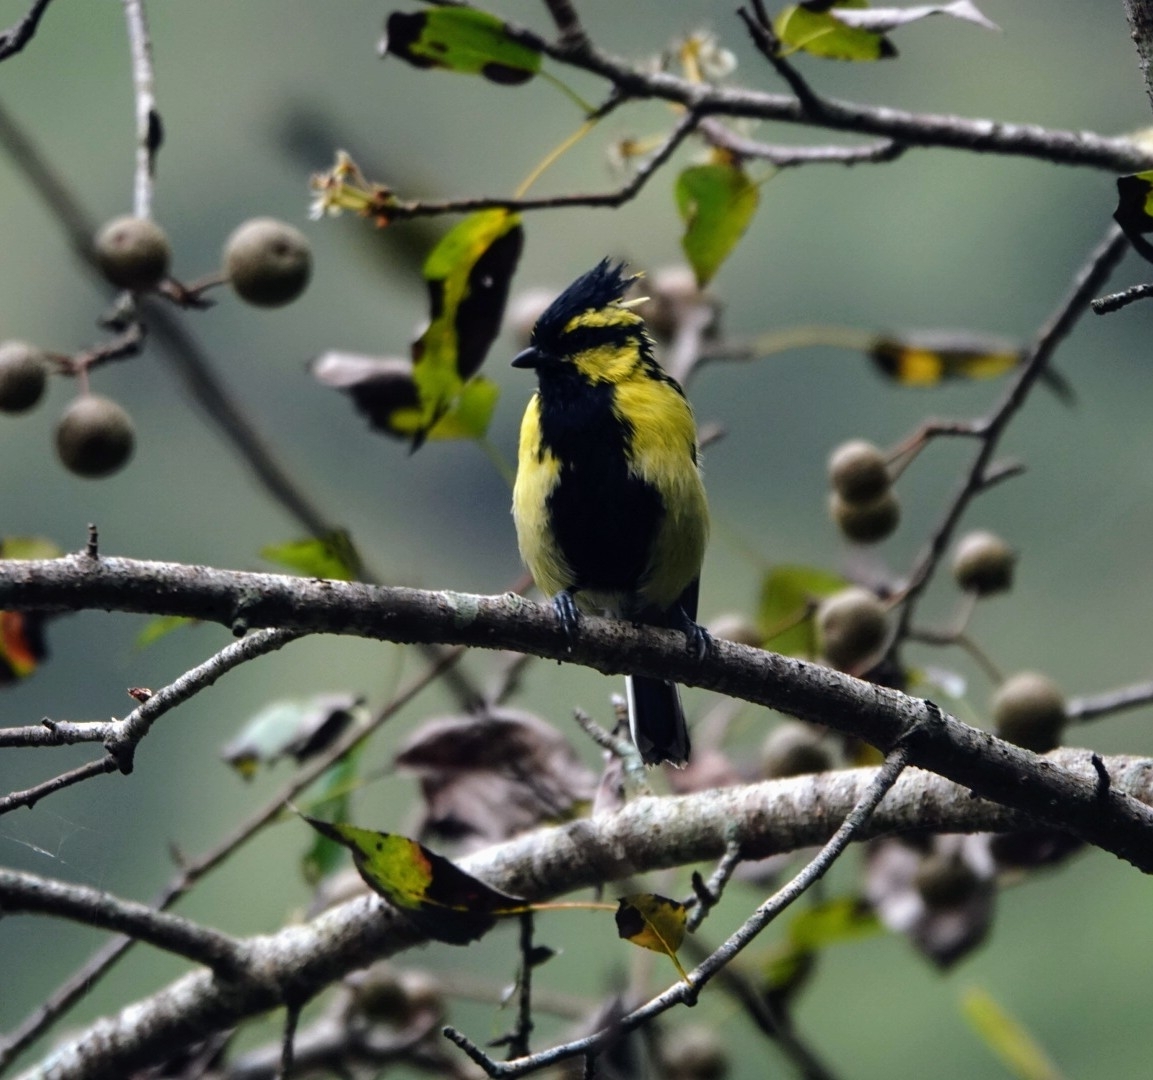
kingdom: Animalia
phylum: Chordata
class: Aves
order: Passeriformes
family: Paridae
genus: Parus
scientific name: Parus xanthogenys
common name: Black-lored tit
